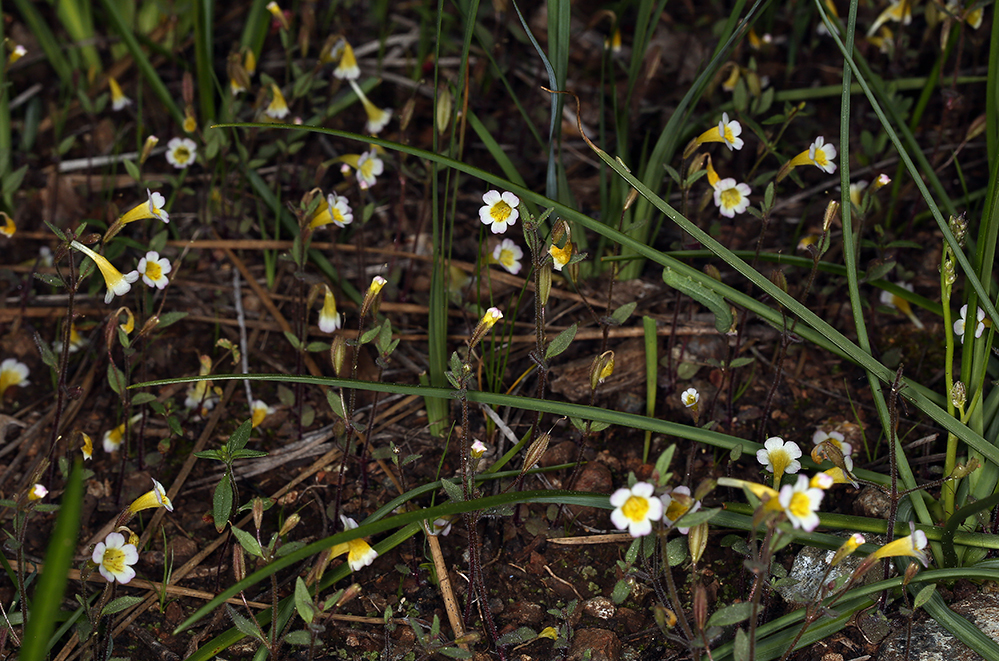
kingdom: Plantae
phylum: Tracheophyta
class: Magnoliopsida
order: Lamiales
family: Phrymaceae
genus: Erythranthe
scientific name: Erythranthe trinitiensis
